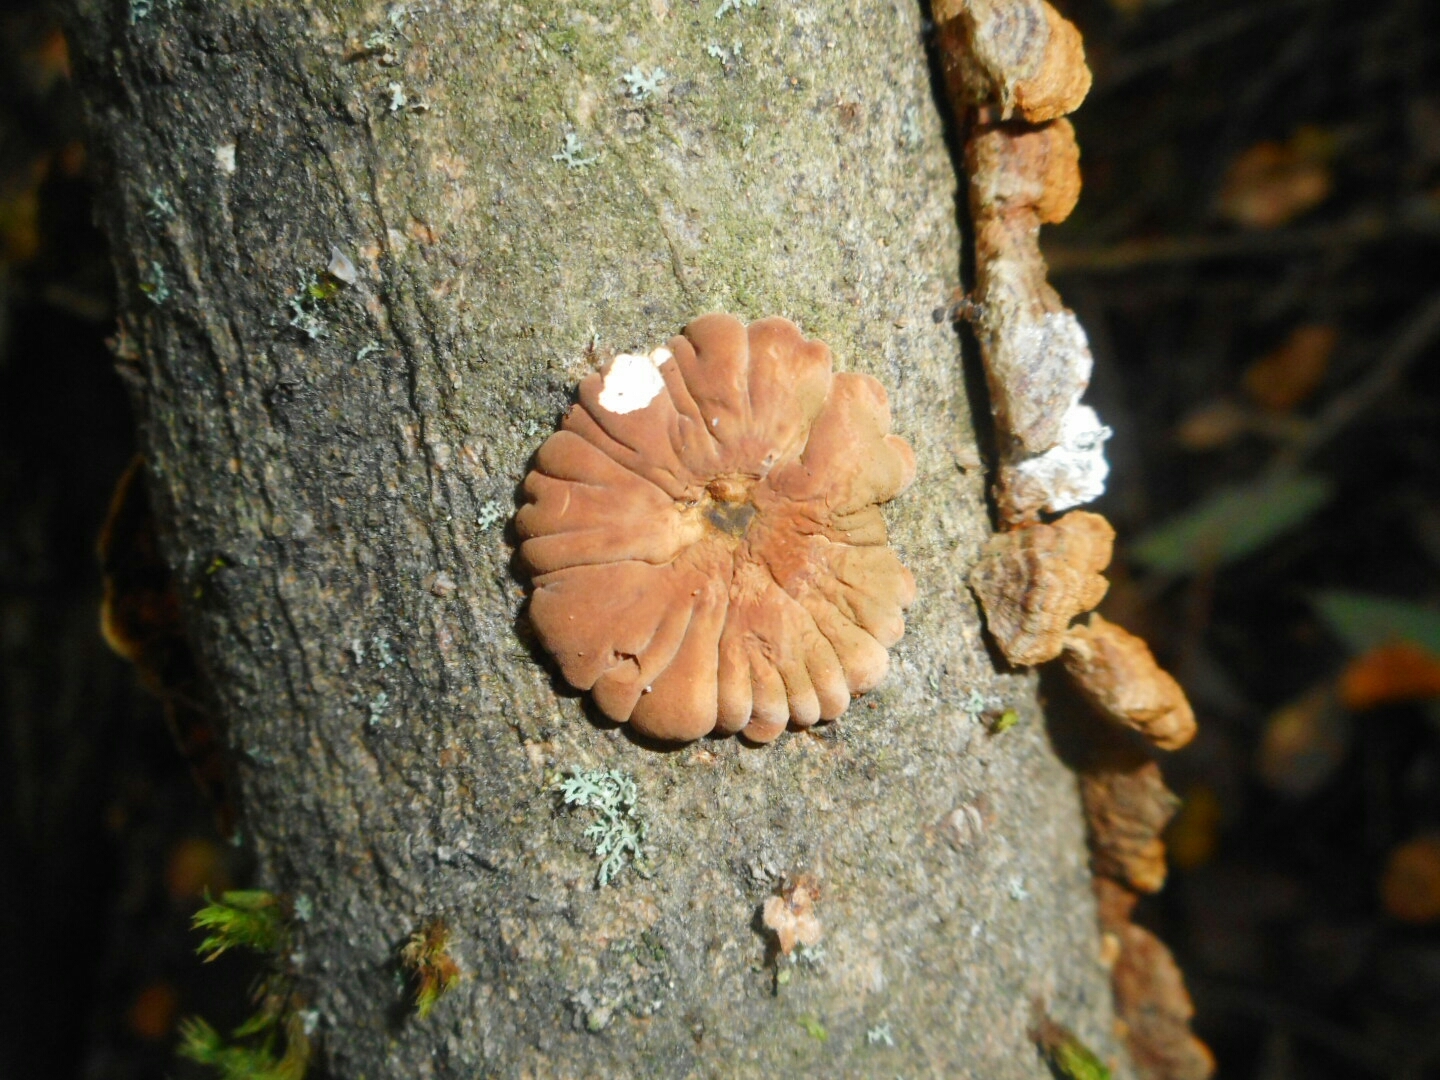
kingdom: Fungi
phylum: Ascomycota
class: Sordariomycetes
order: Hypocreales
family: Hypocreaceae
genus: Hypocreopsis
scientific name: Hypocreopsis lichenoides
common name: Willow gloves
